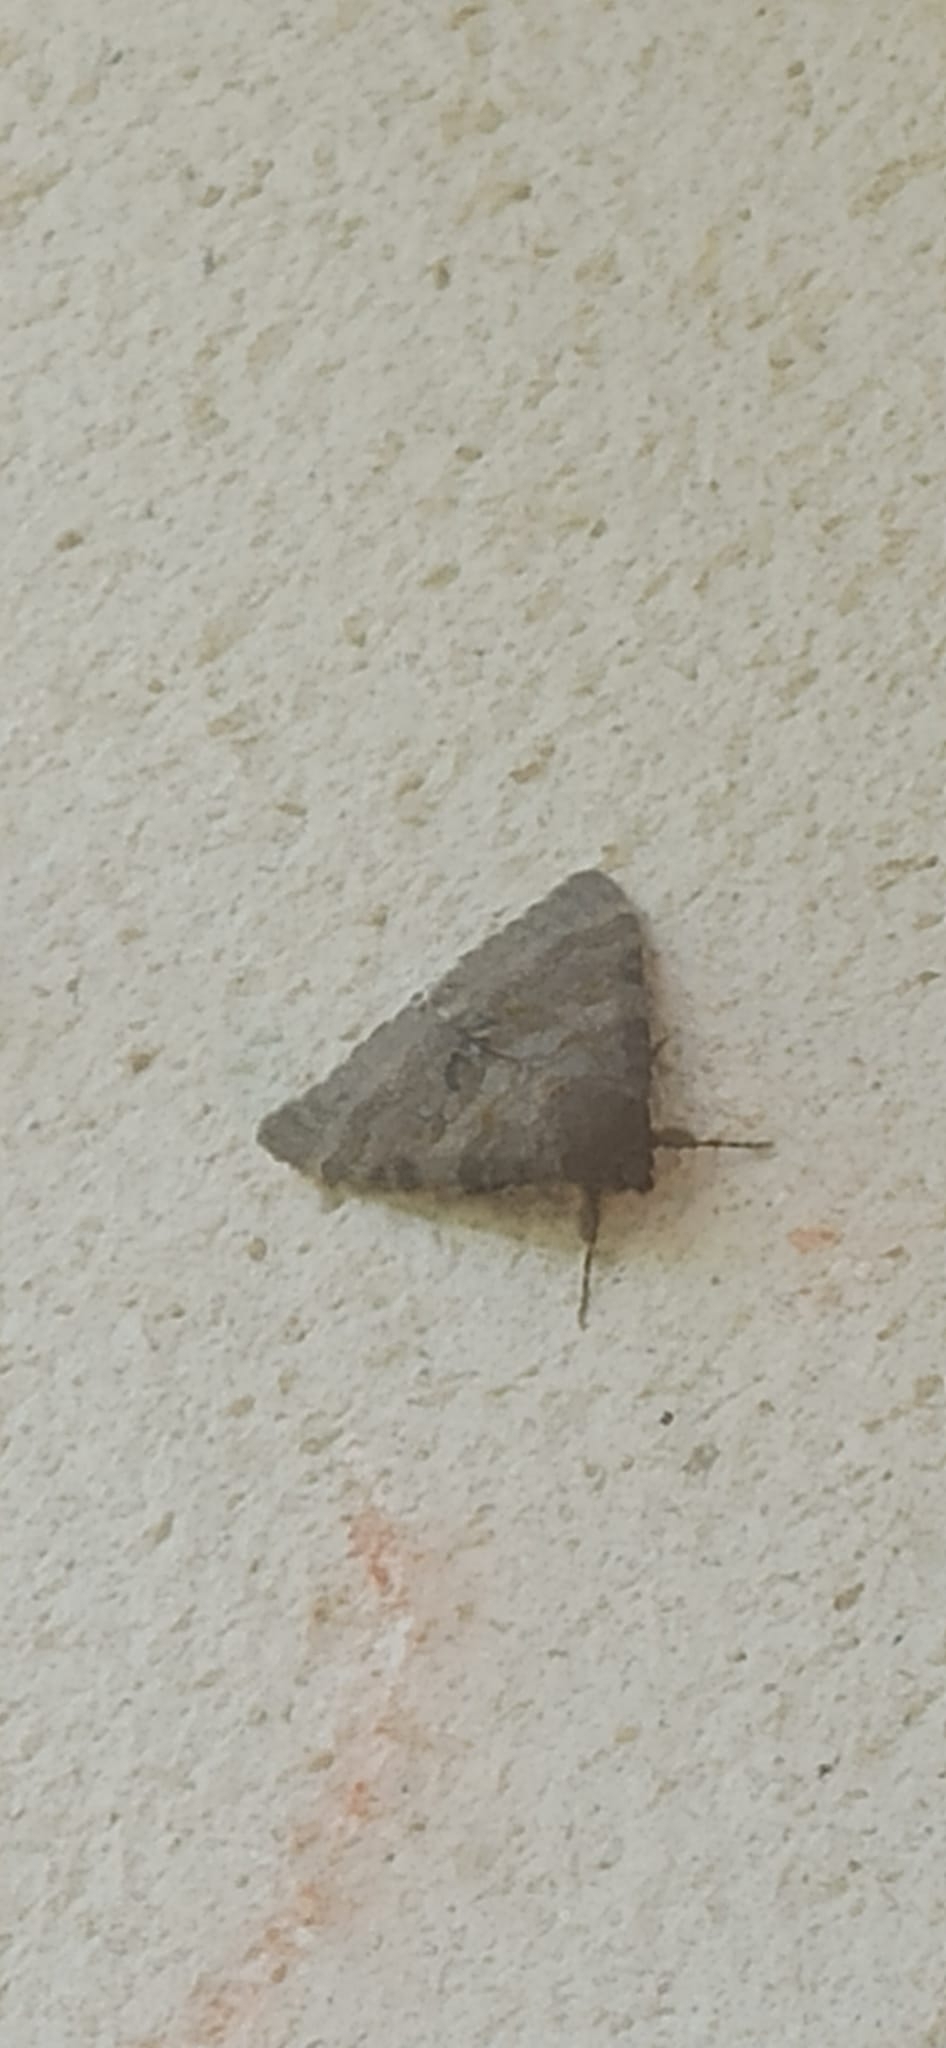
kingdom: Animalia
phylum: Arthropoda
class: Insecta
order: Lepidoptera
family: Erebidae
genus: Catocala
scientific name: Catocala elocata
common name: French red underwing
